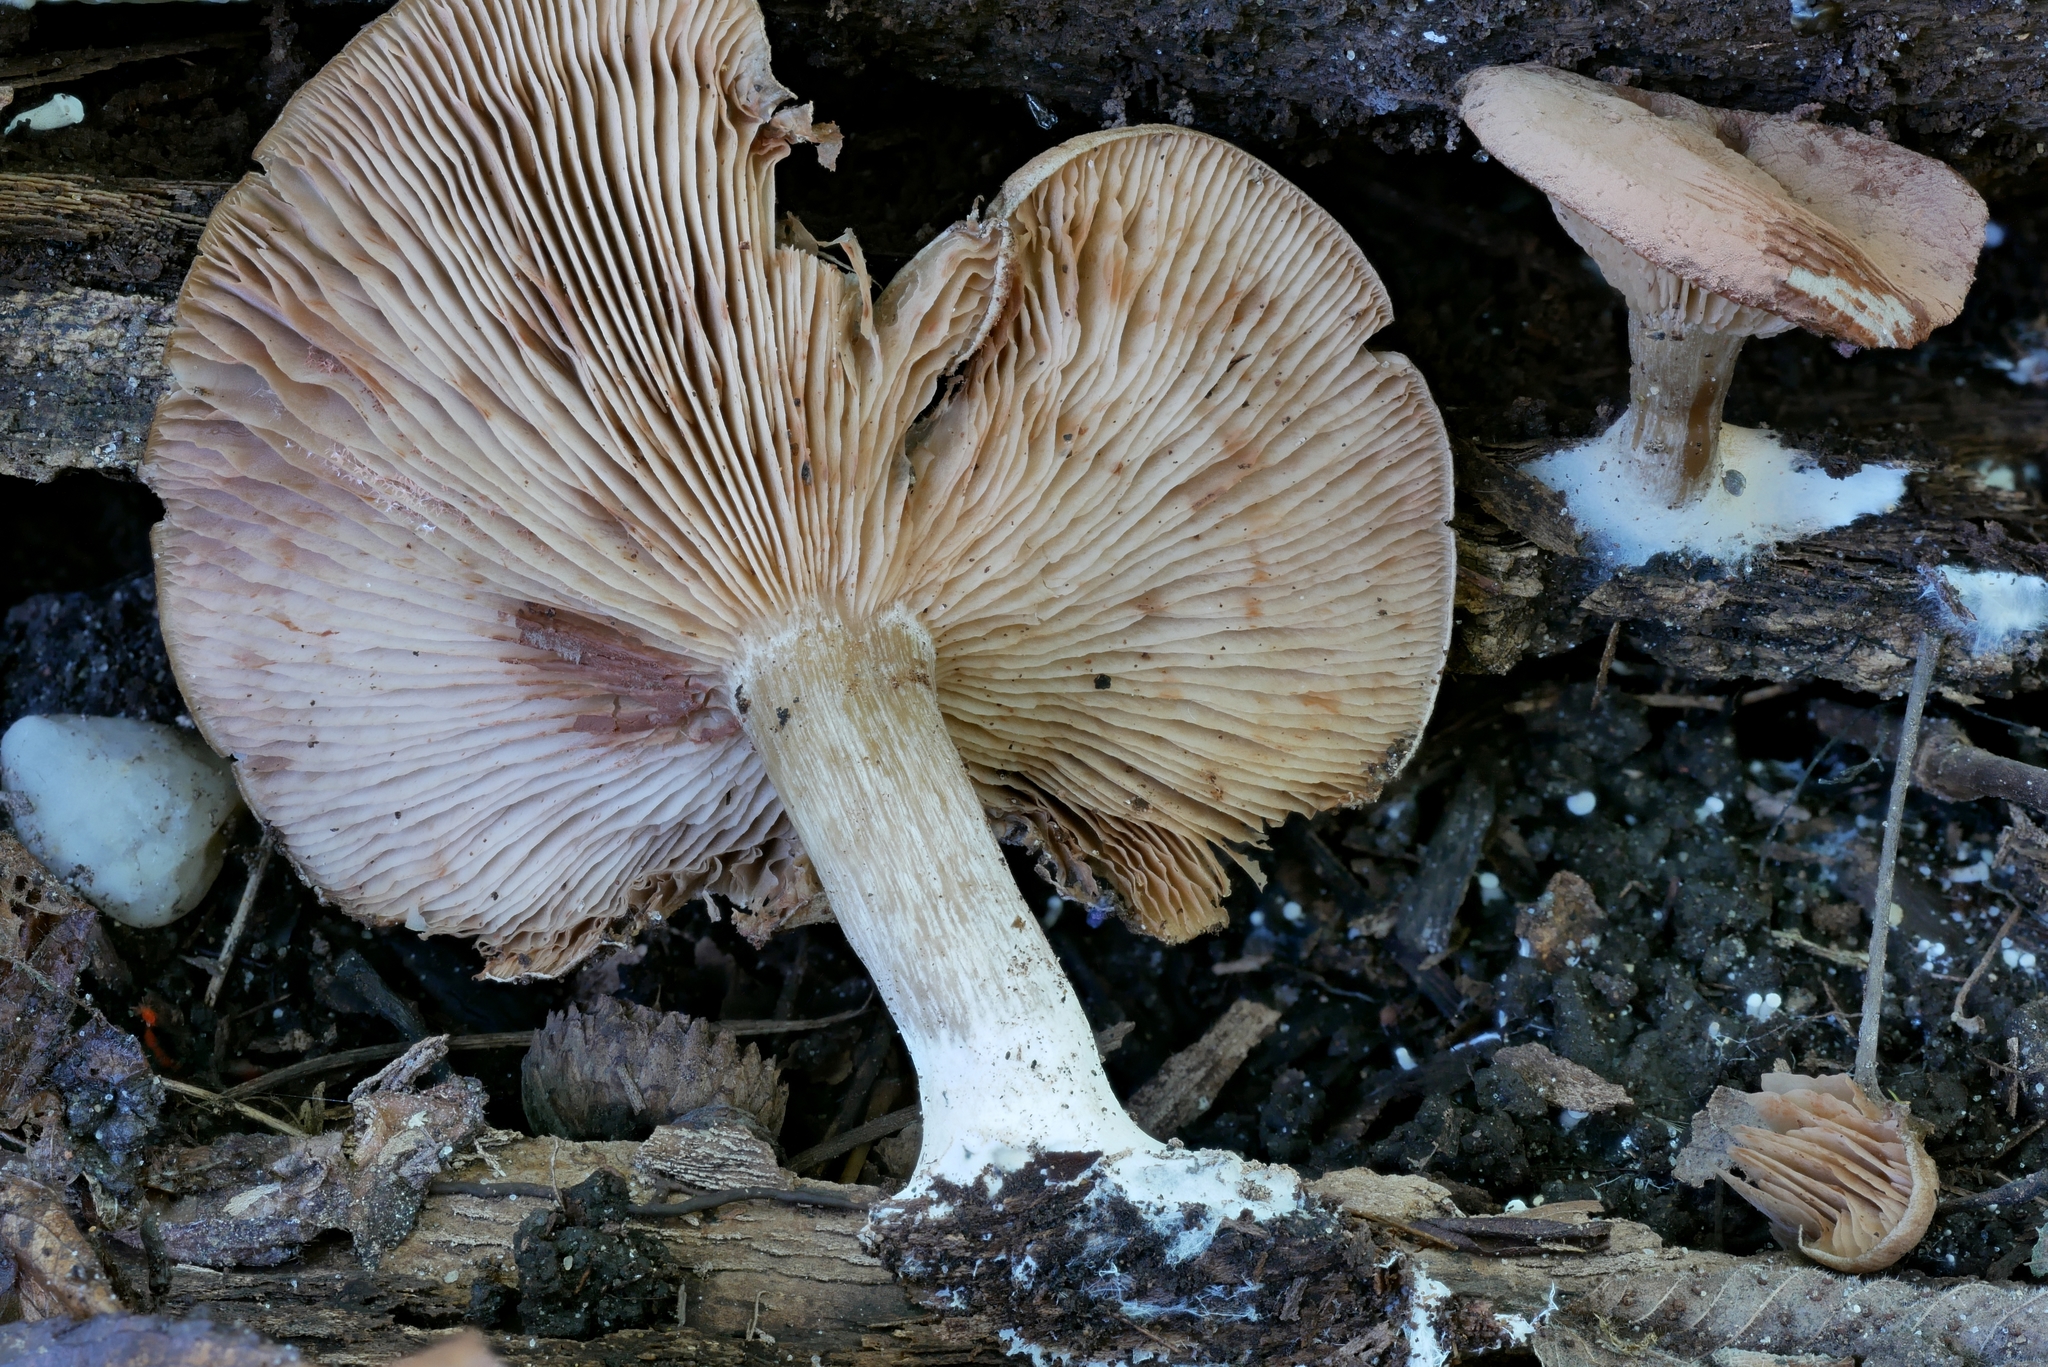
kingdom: Fungi
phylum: Basidiomycota
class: Agaricomycetes
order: Agaricales
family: Entolomataceae
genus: Entoloma
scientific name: Entoloma abortivum
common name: Aborted entoloma
